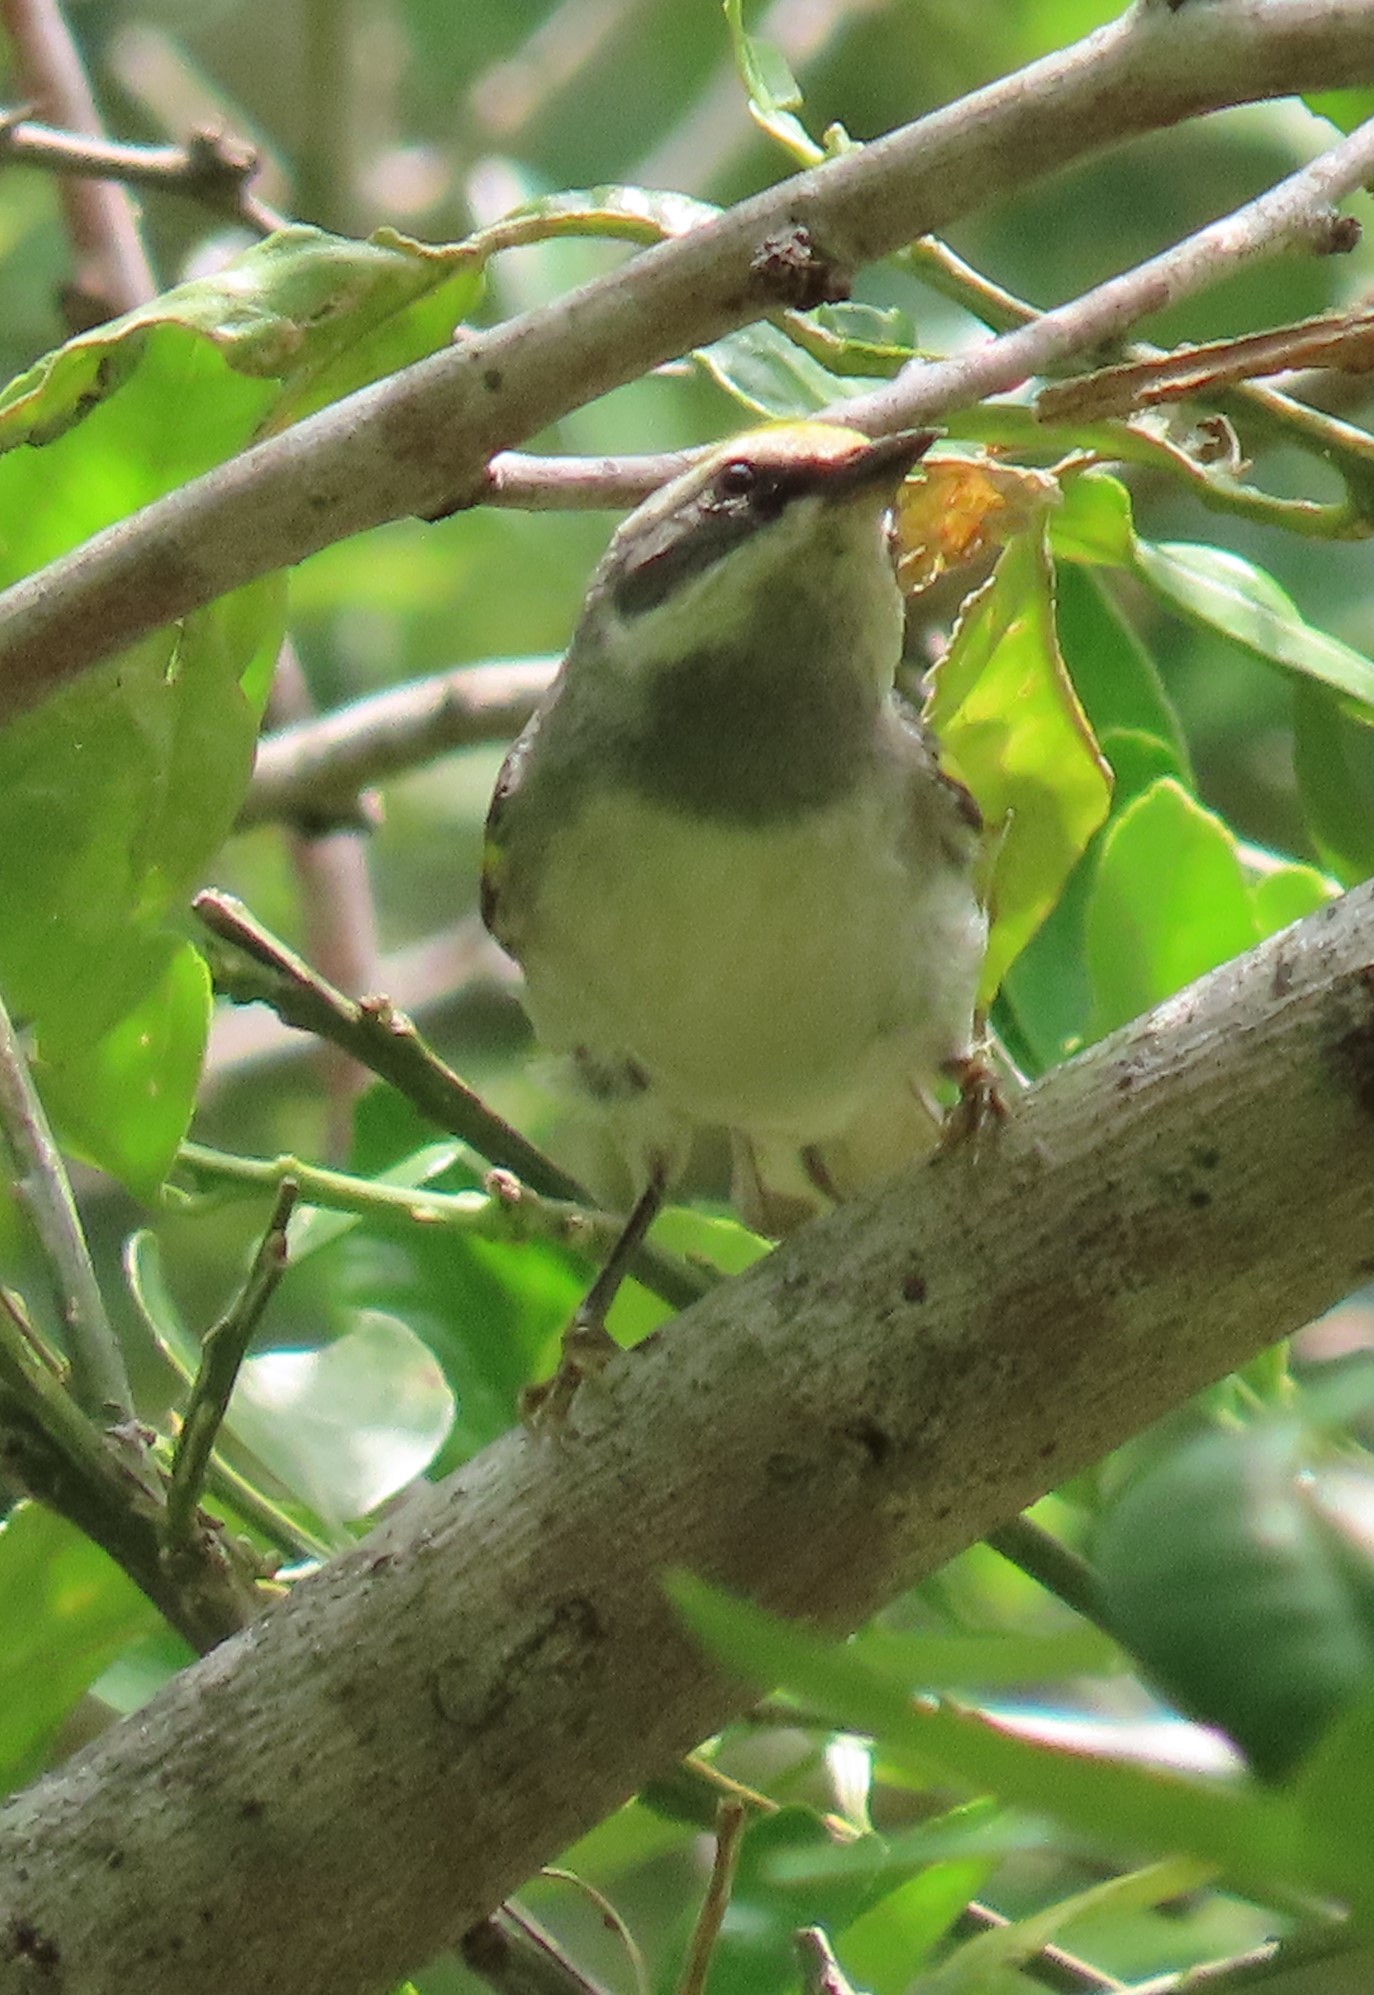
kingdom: Animalia
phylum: Chordata
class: Aves
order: Passeriformes
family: Parulidae
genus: Vermivora
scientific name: Vermivora chrysoptera
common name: Golden-winged warbler
